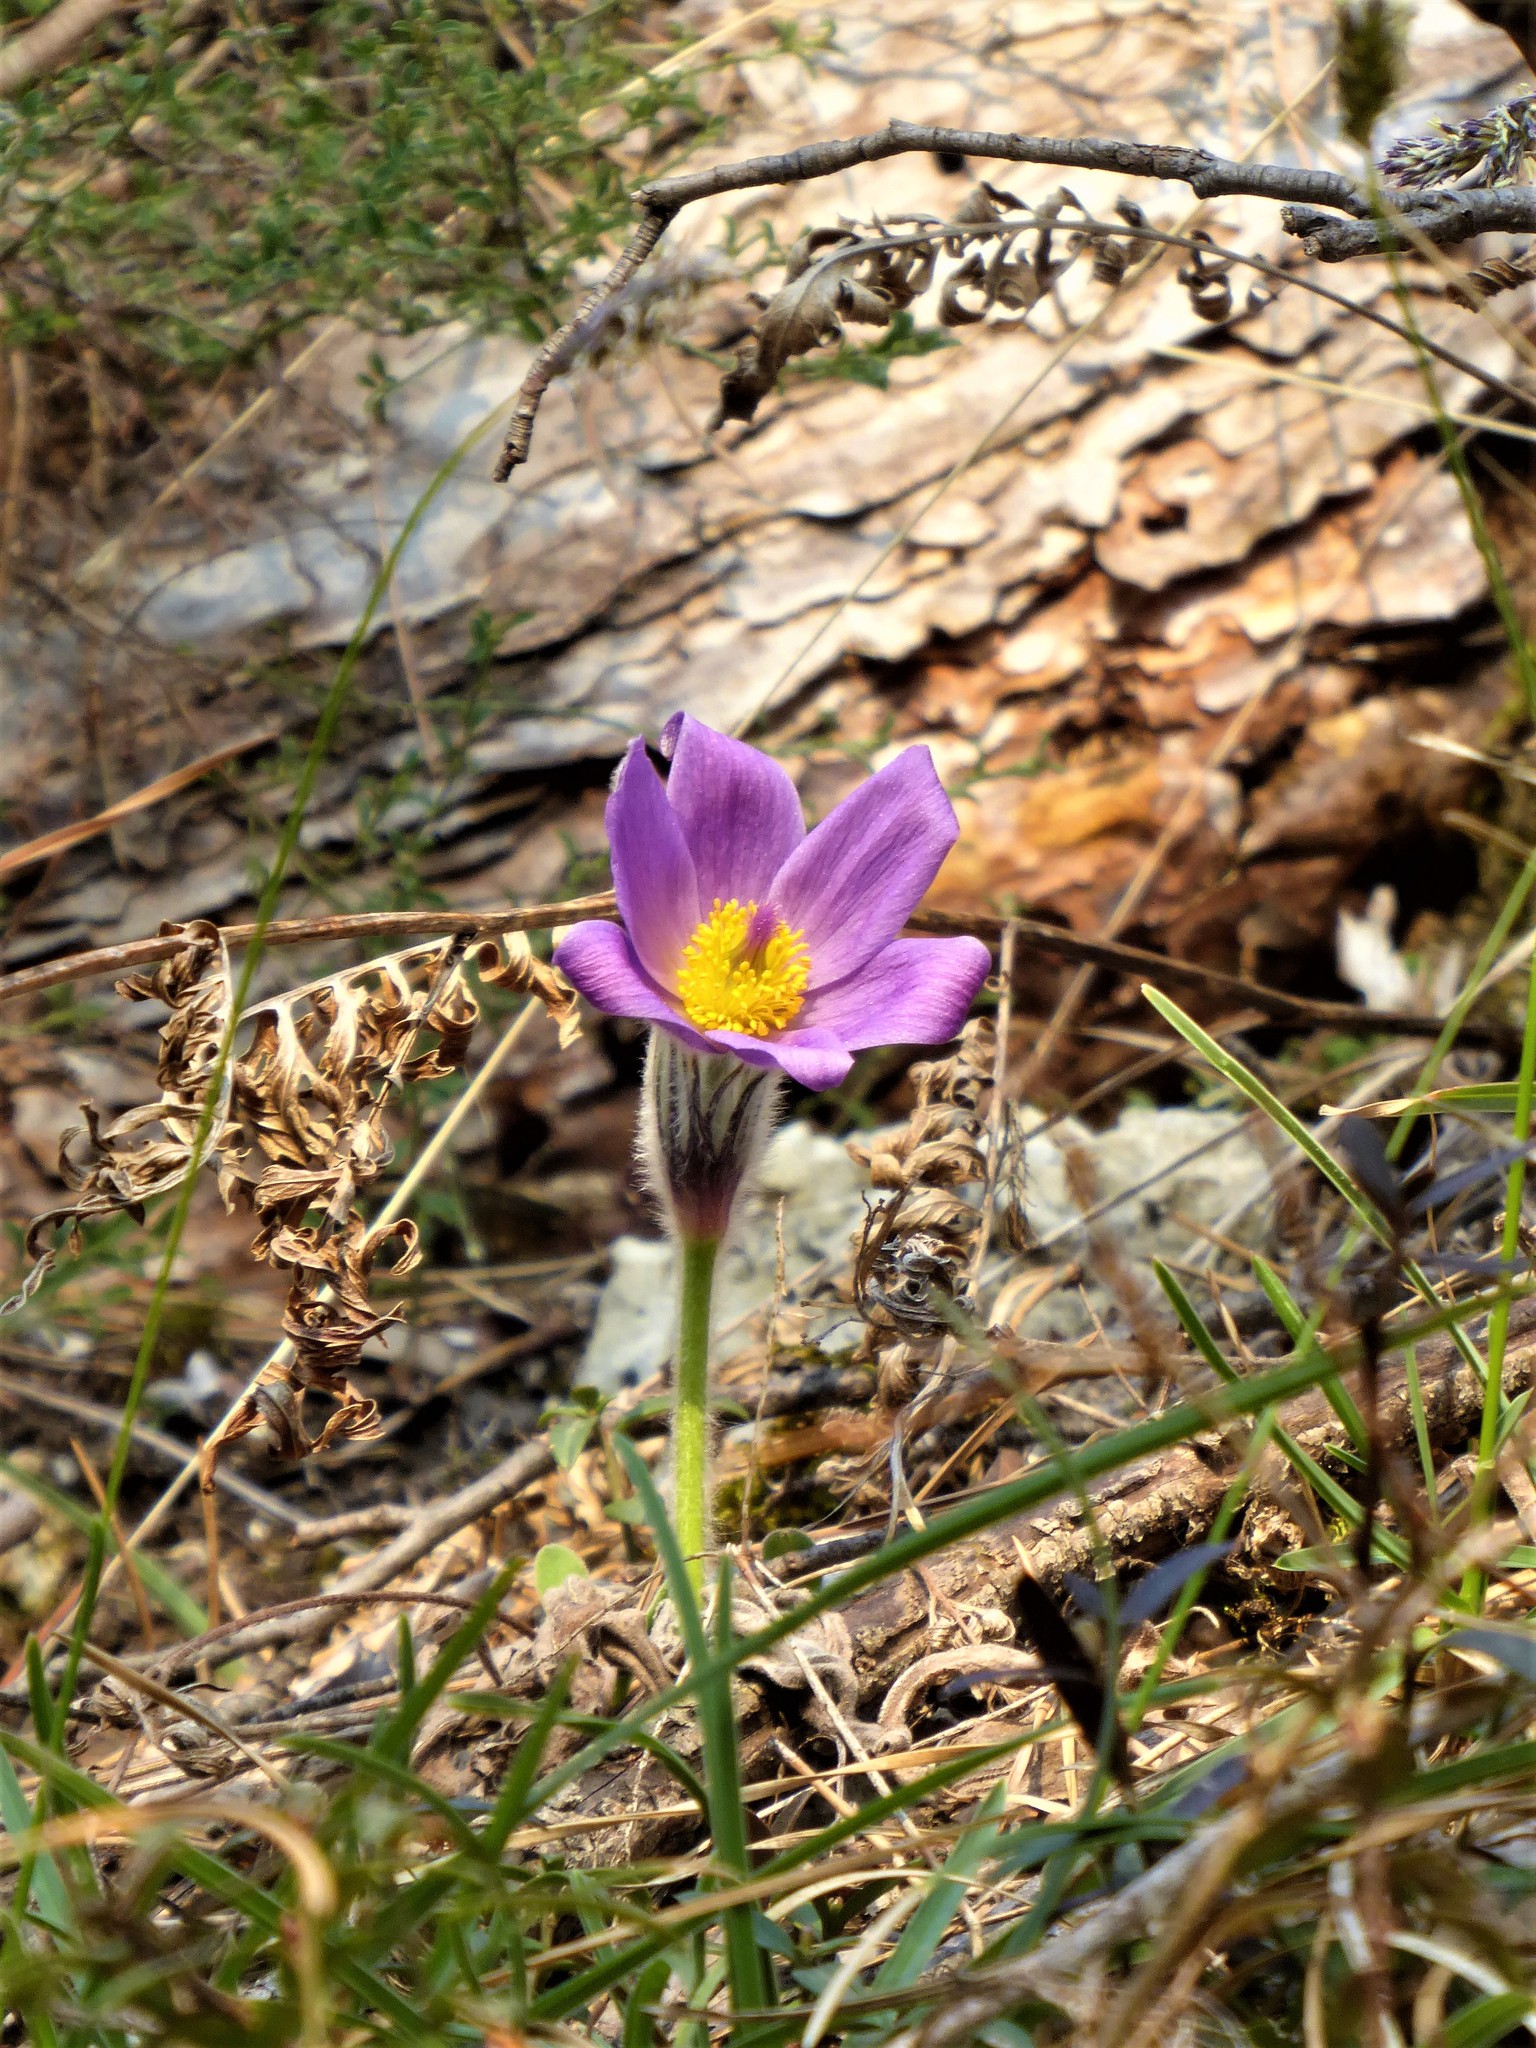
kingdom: Plantae
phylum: Tracheophyta
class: Magnoliopsida
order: Ranunculales
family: Ranunculaceae
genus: Pulsatilla
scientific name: Pulsatilla grandis
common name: Greater pasque flower
